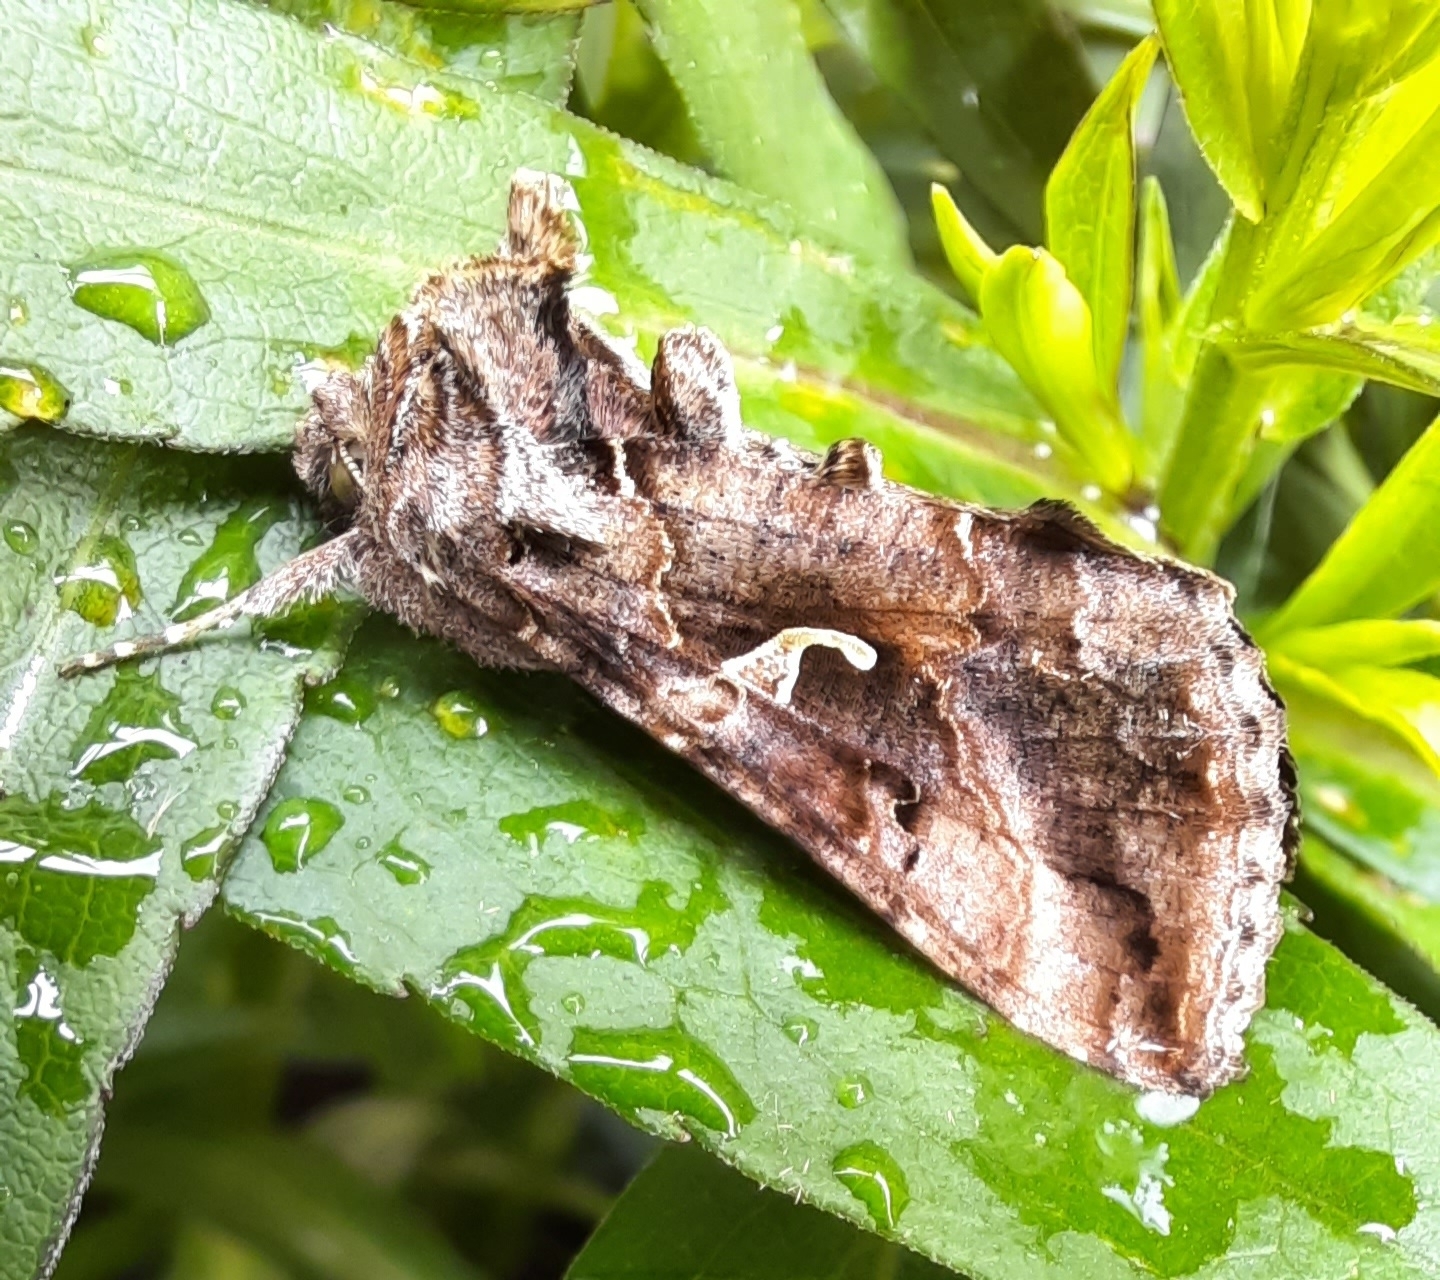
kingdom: Animalia
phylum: Arthropoda
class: Insecta
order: Lepidoptera
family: Noctuidae
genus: Autographa
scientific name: Autographa gamma
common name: Silver y
